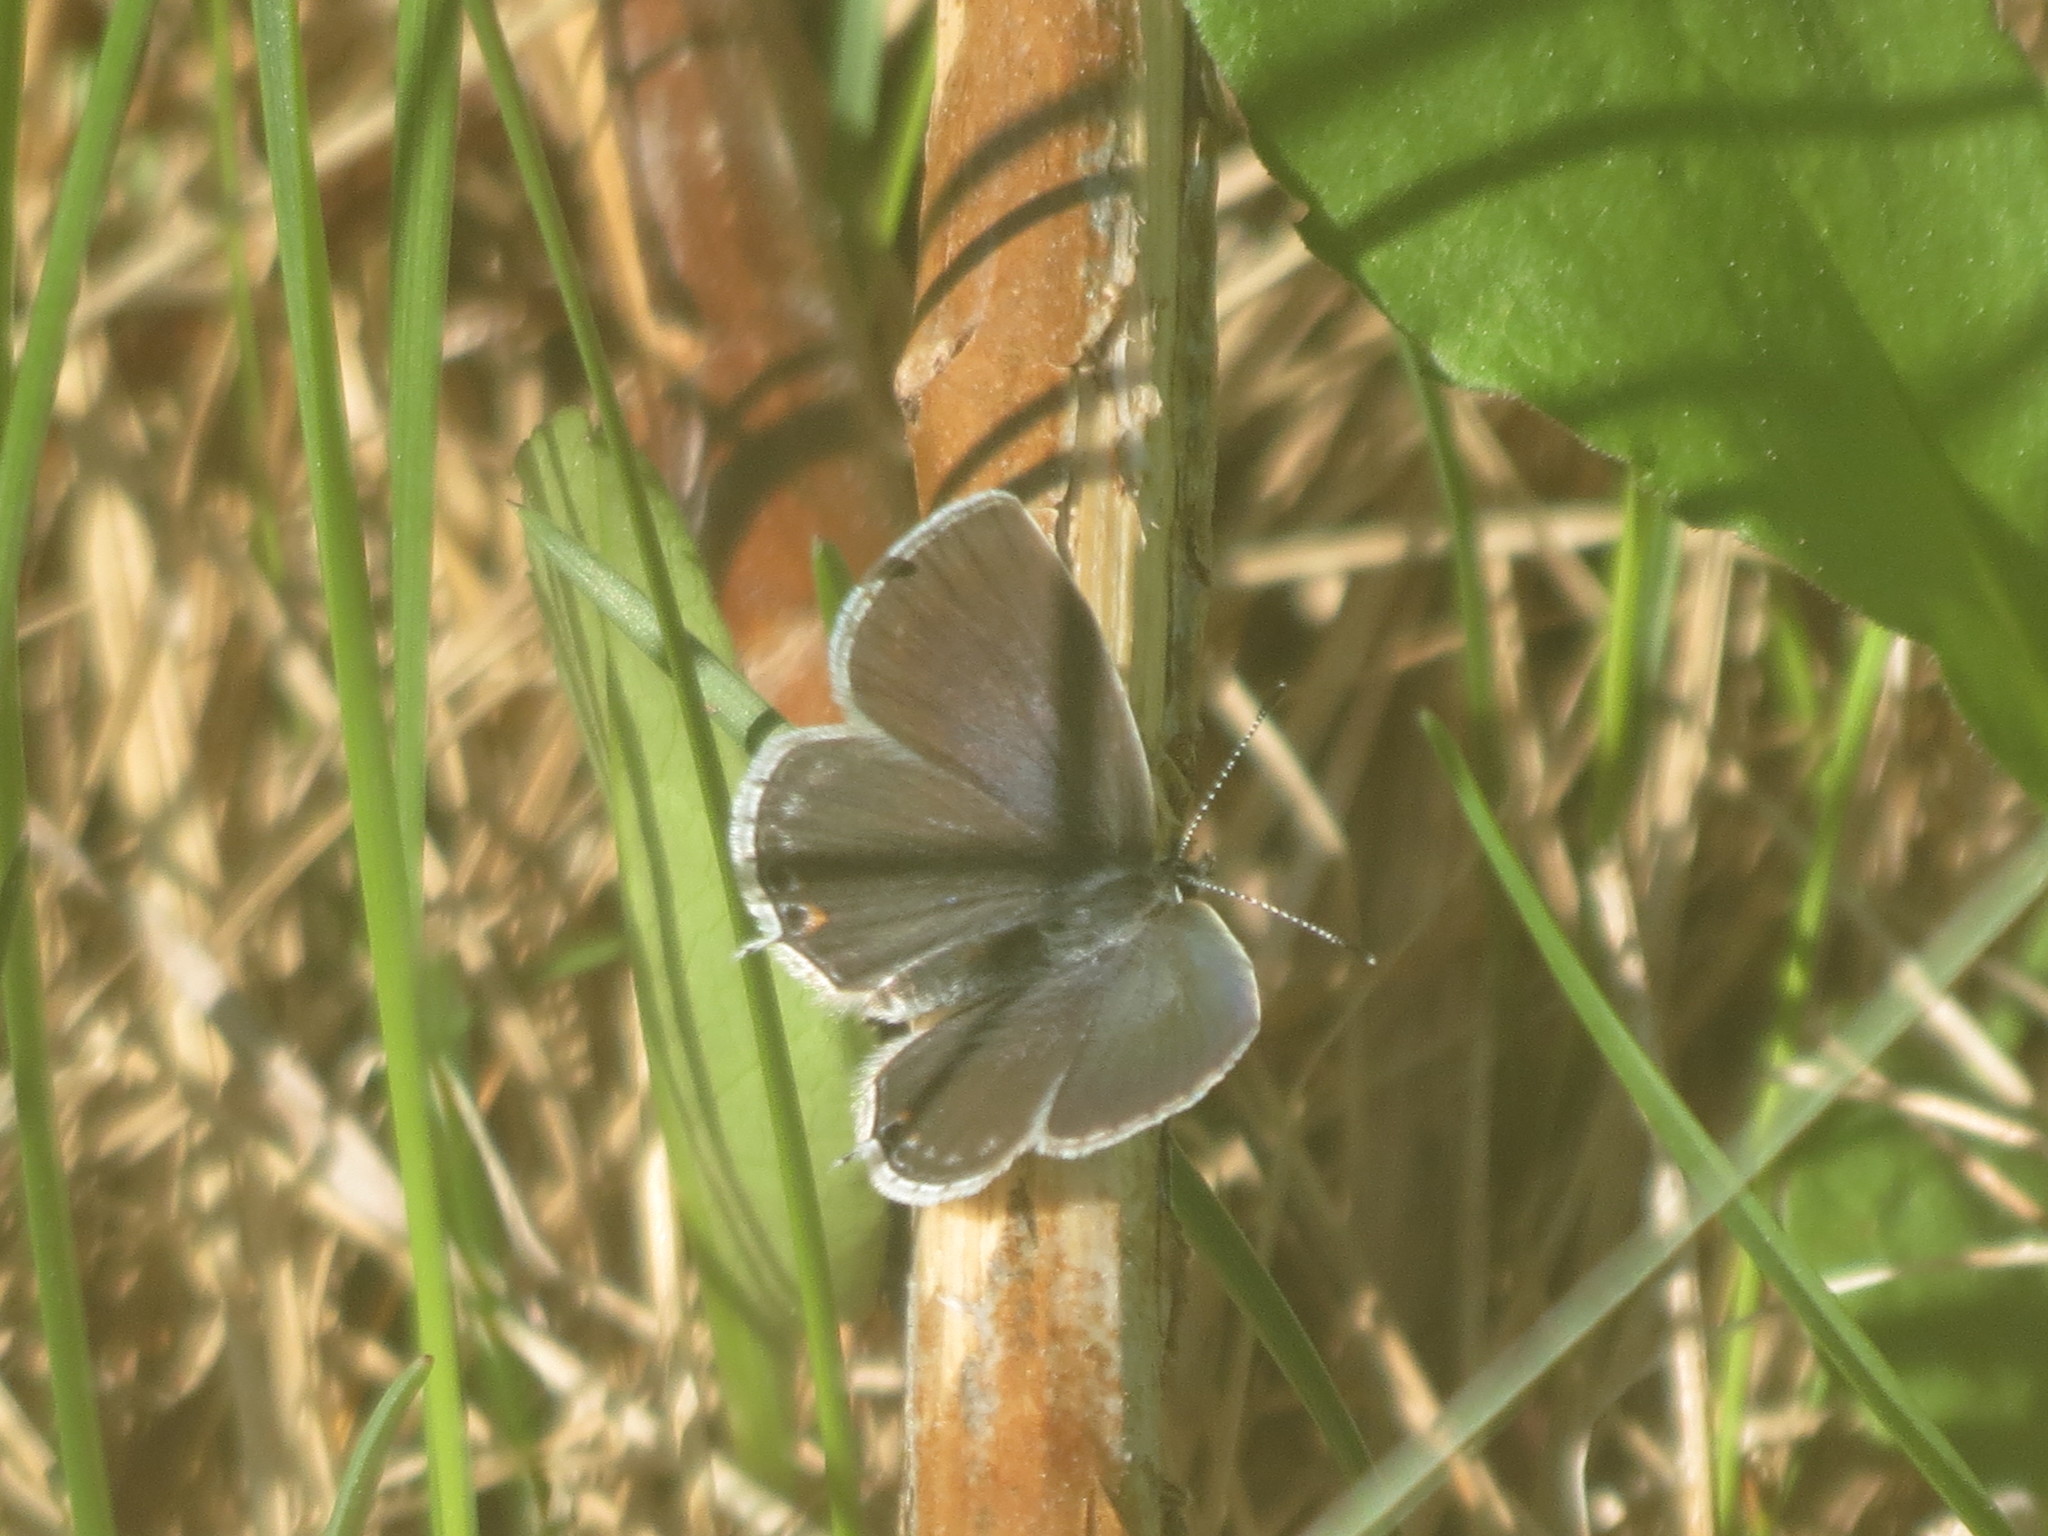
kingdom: Animalia
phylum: Arthropoda
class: Insecta
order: Lepidoptera
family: Lycaenidae
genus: Elkalyce
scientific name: Elkalyce amyntula
